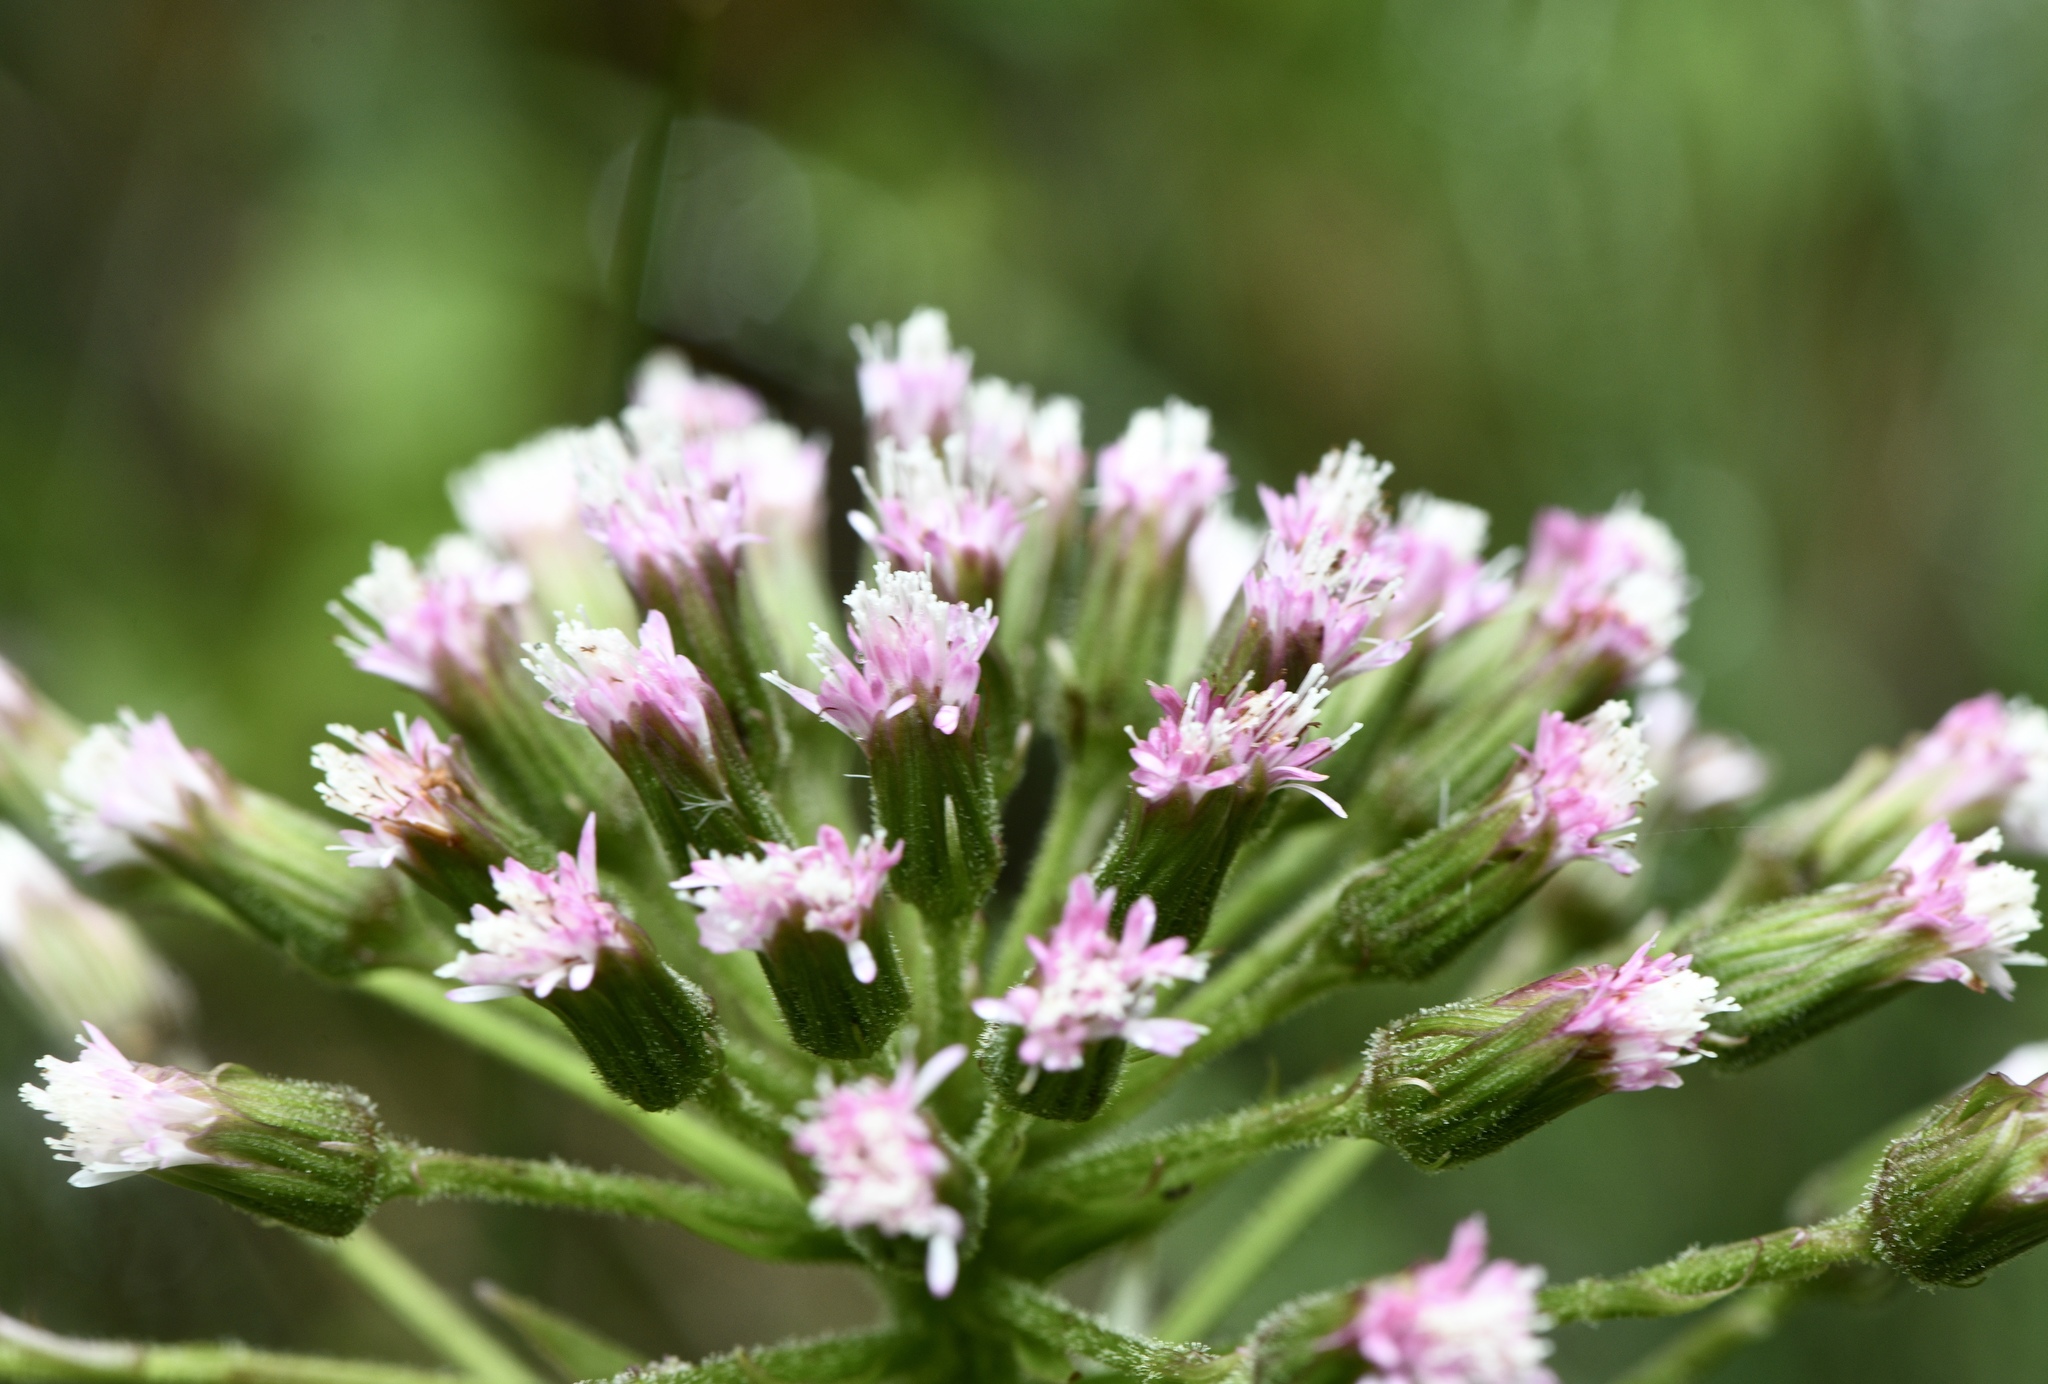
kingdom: Plantae
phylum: Tracheophyta
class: Magnoliopsida
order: Asterales
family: Asteraceae
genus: Petasites
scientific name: Petasites frigidus
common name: Arctic butterbur
